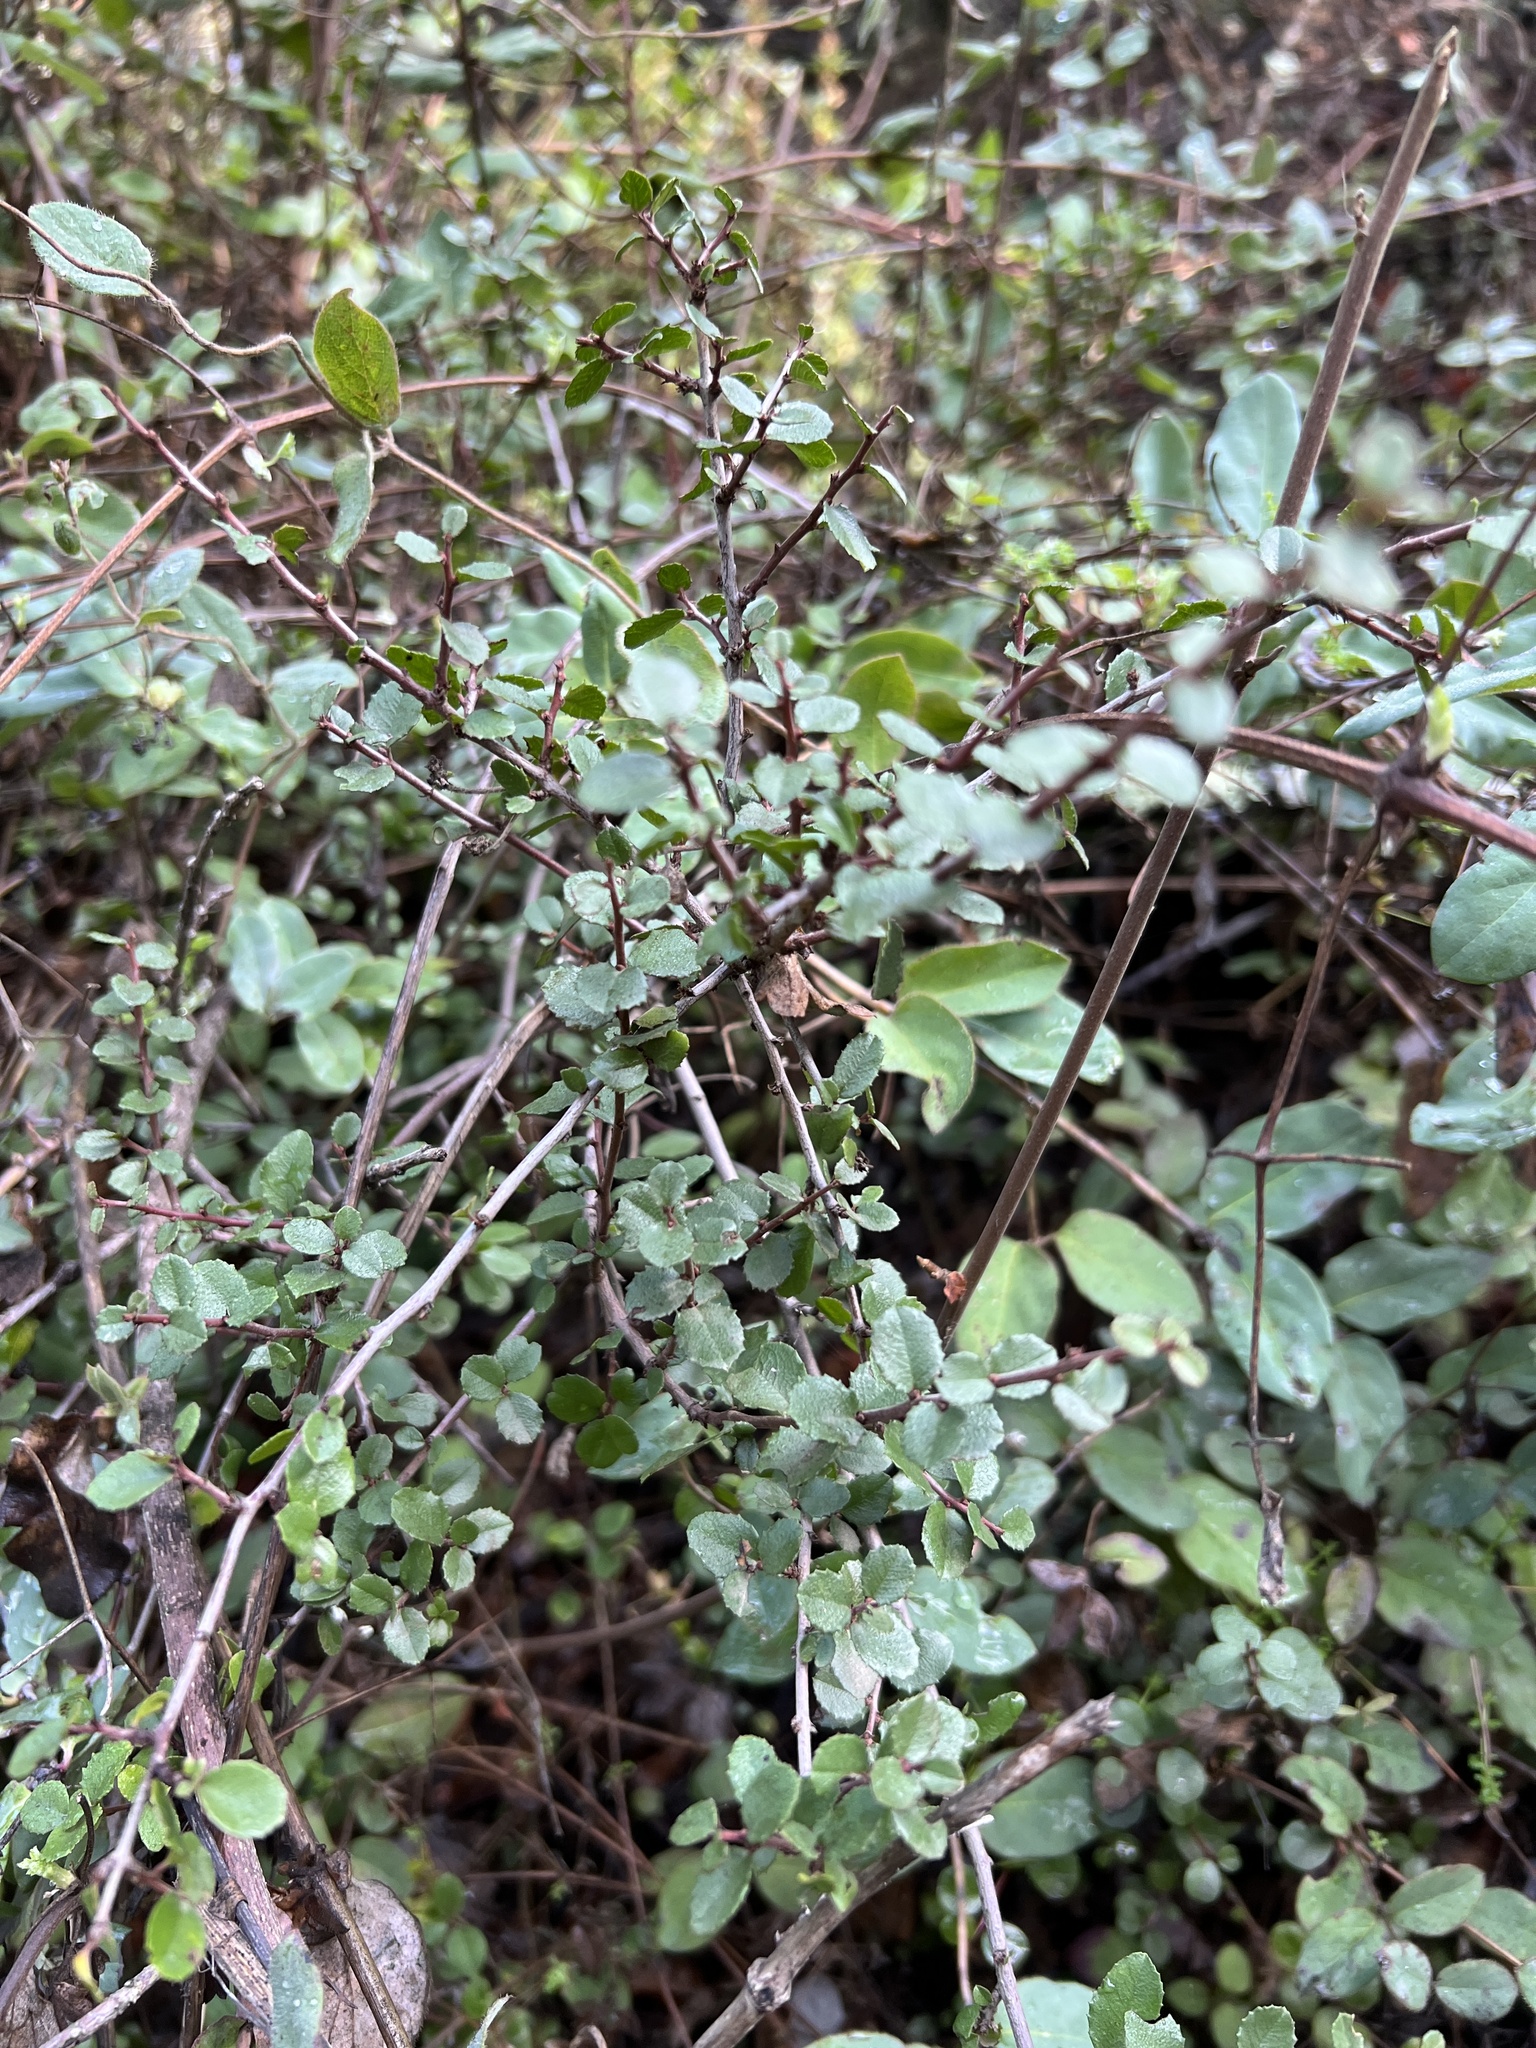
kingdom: Plantae
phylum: Tracheophyta
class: Magnoliopsida
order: Rosales
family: Rhamnaceae
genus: Endotropis
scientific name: Endotropis crocea
